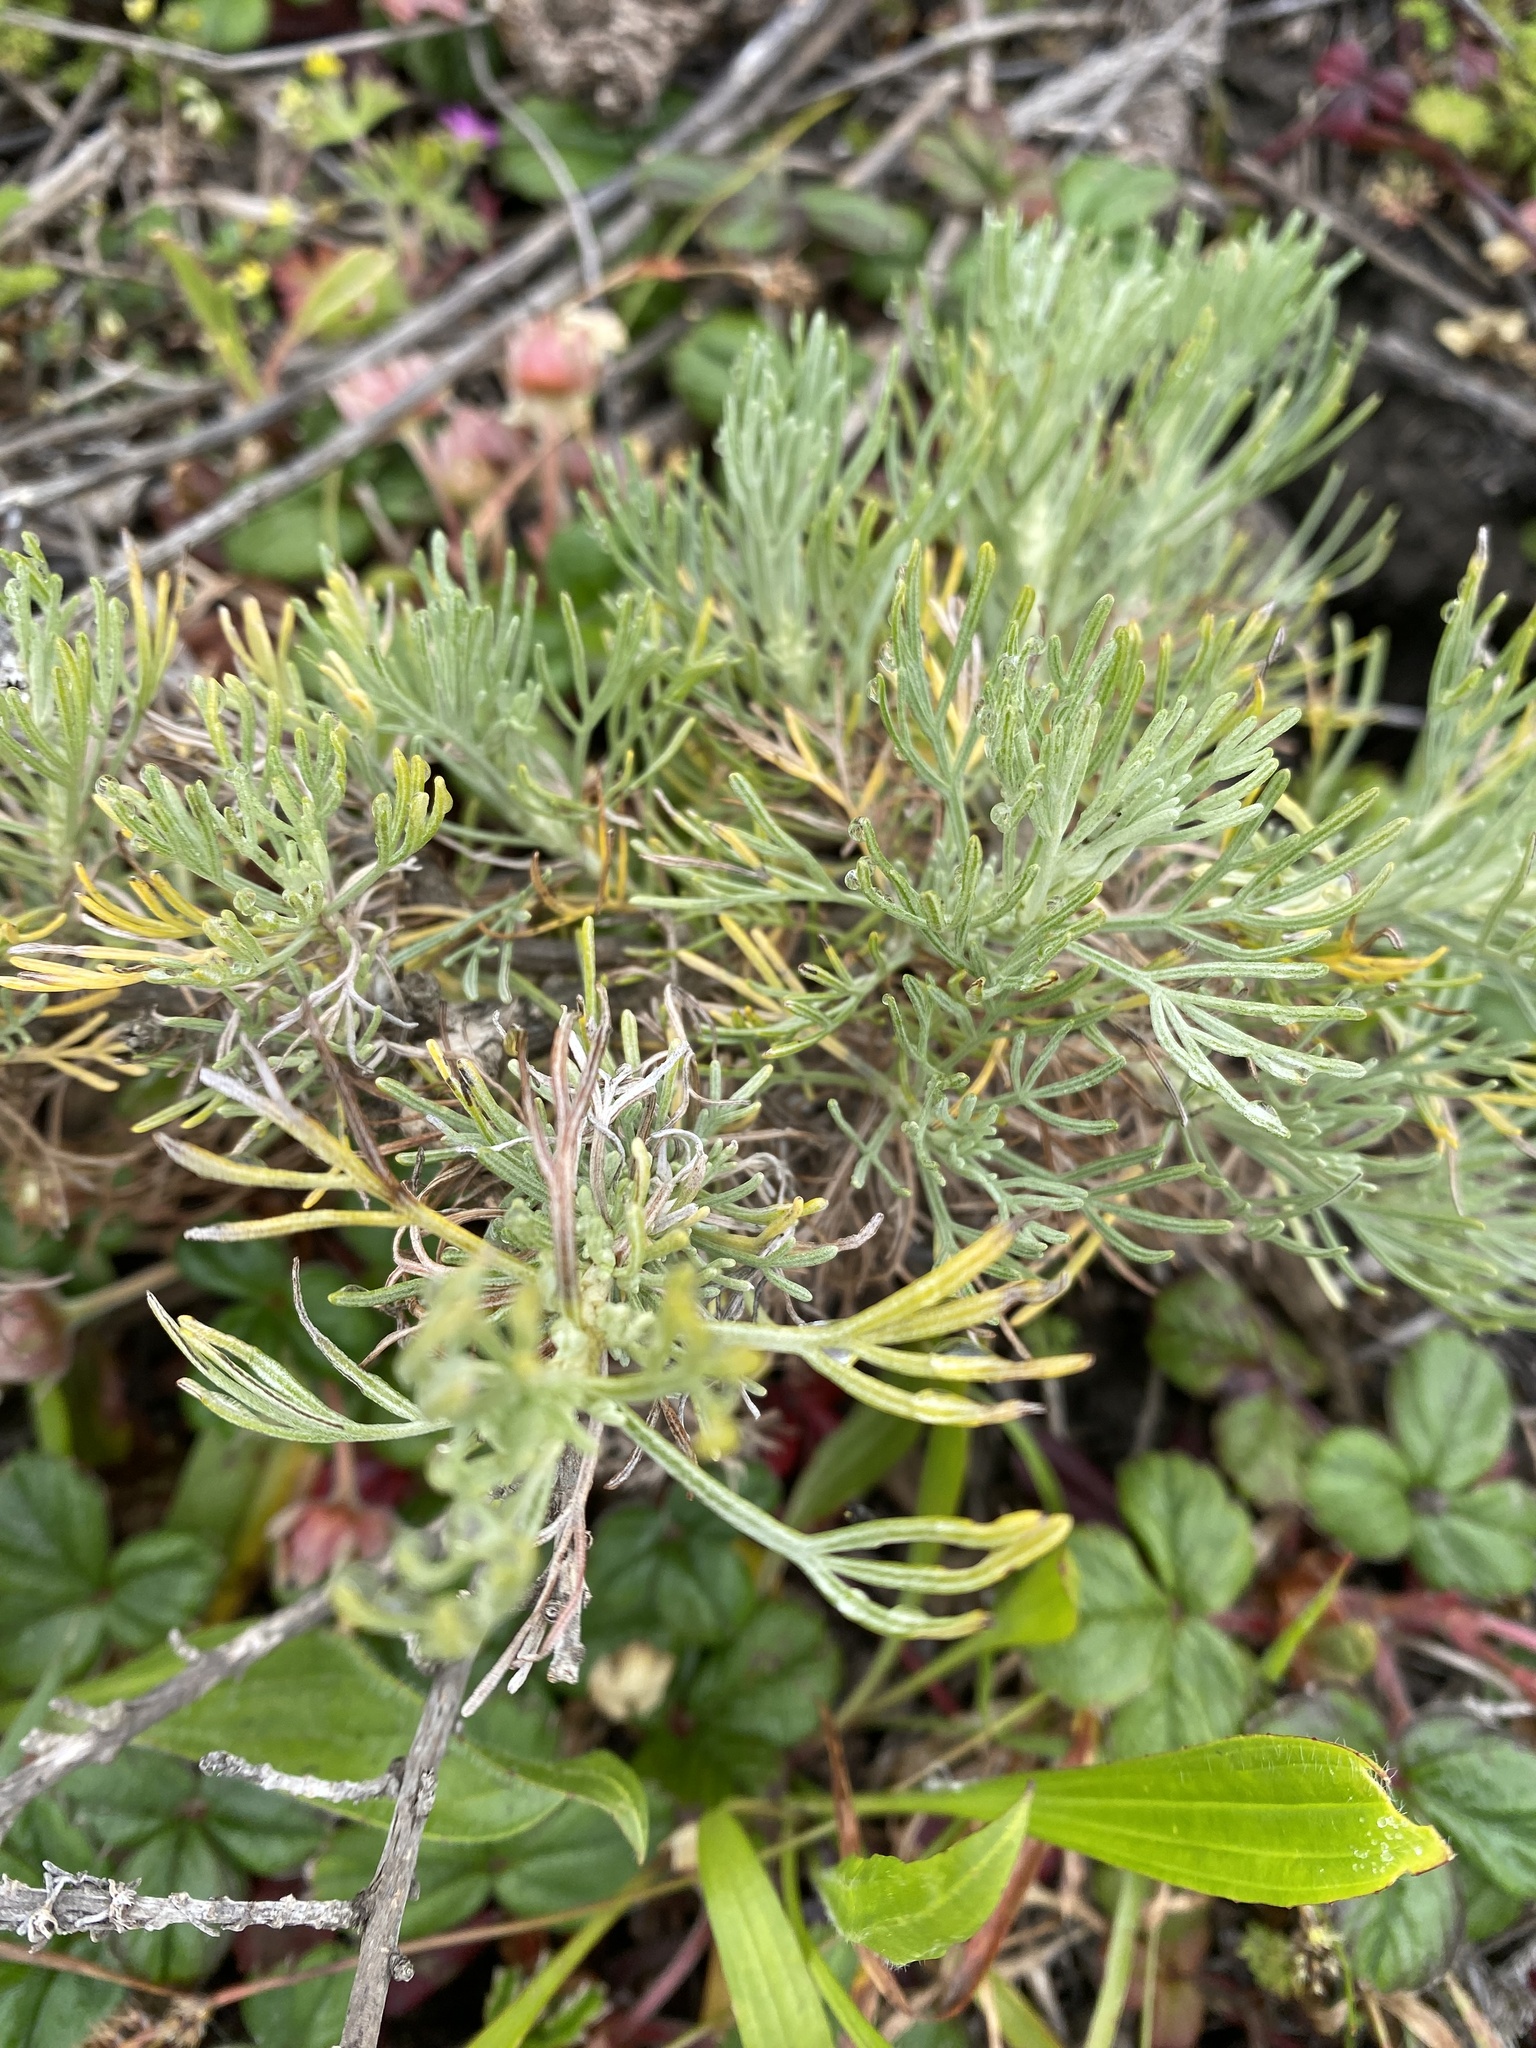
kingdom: Plantae
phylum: Tracheophyta
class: Magnoliopsida
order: Asterales
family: Asteraceae
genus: Artemisia
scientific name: Artemisia californica
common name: California sagebrush
